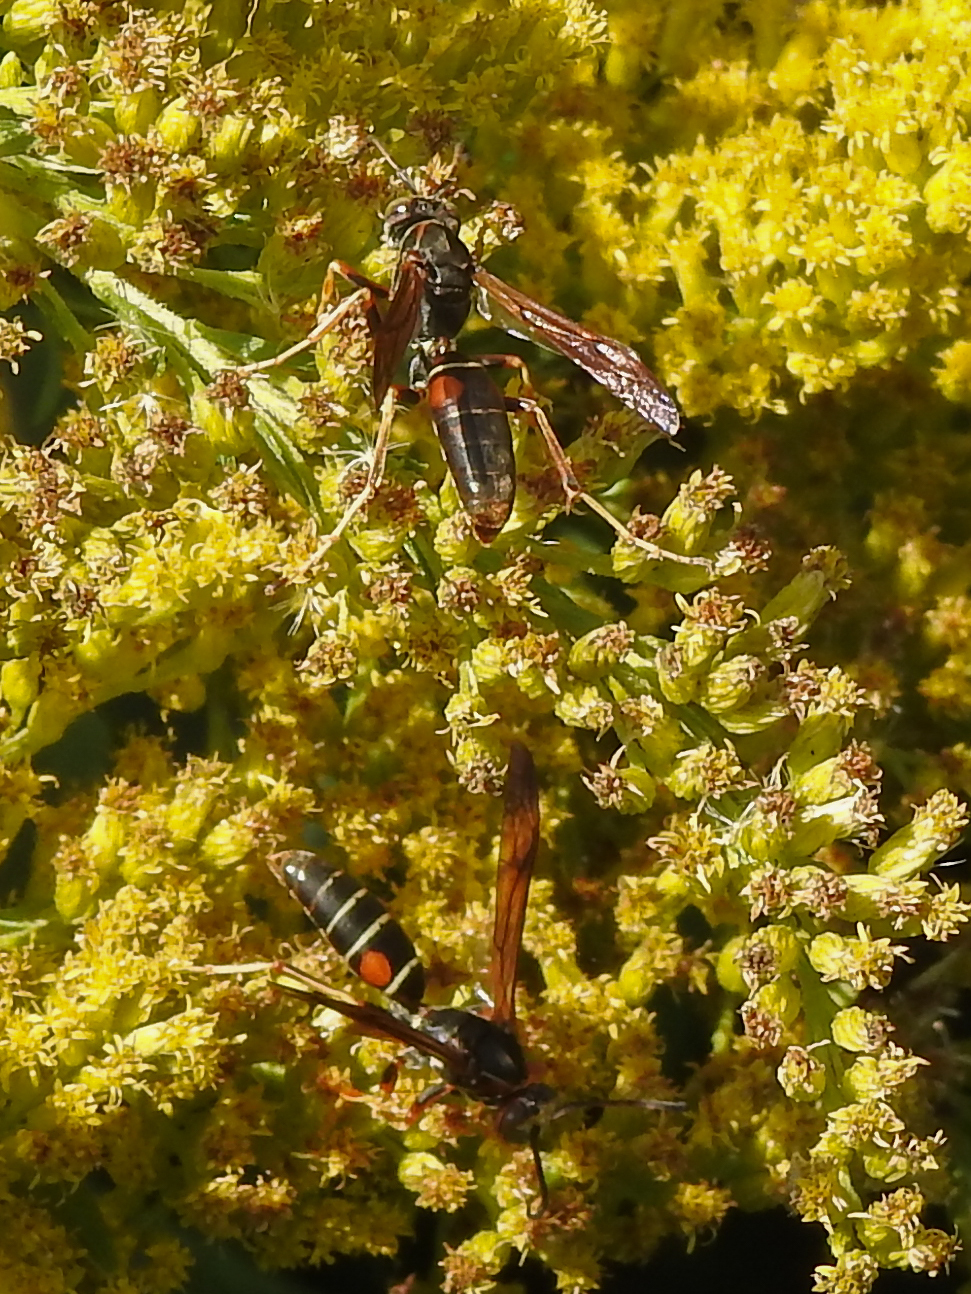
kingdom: Animalia
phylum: Arthropoda
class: Insecta
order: Hymenoptera
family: Eumenidae
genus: Polistes
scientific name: Polistes fuscatus
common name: Dark paper wasp
